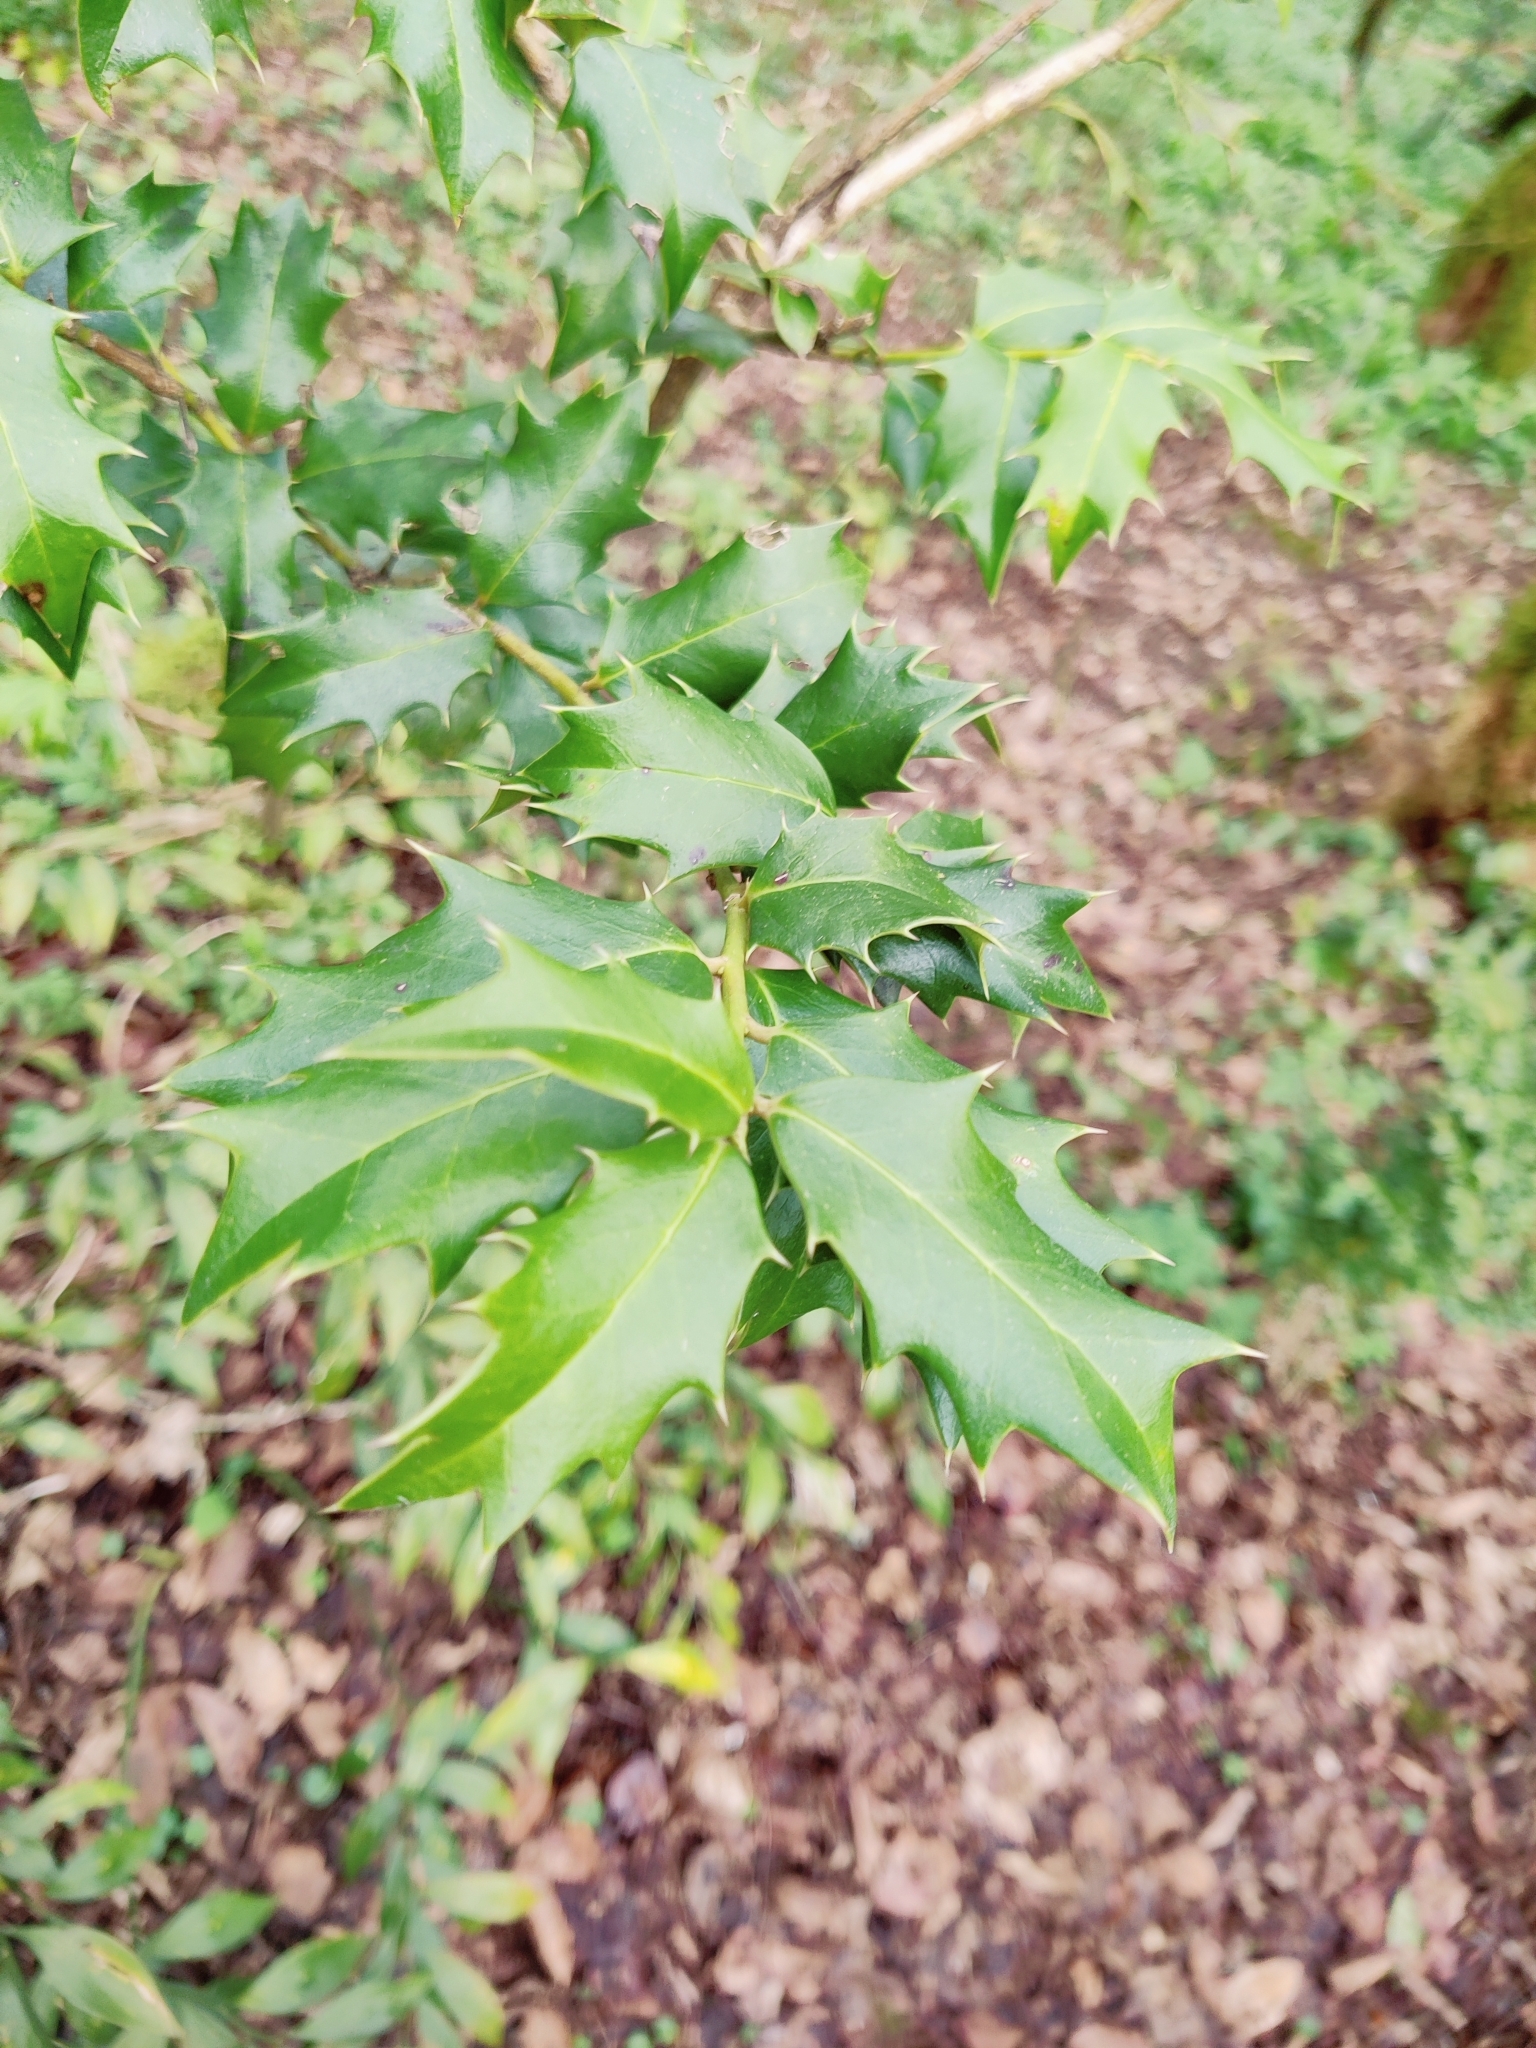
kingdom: Plantae
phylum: Tracheophyta
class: Magnoliopsida
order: Aquifoliales
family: Aquifoliaceae
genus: Ilex
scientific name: Ilex colchica
